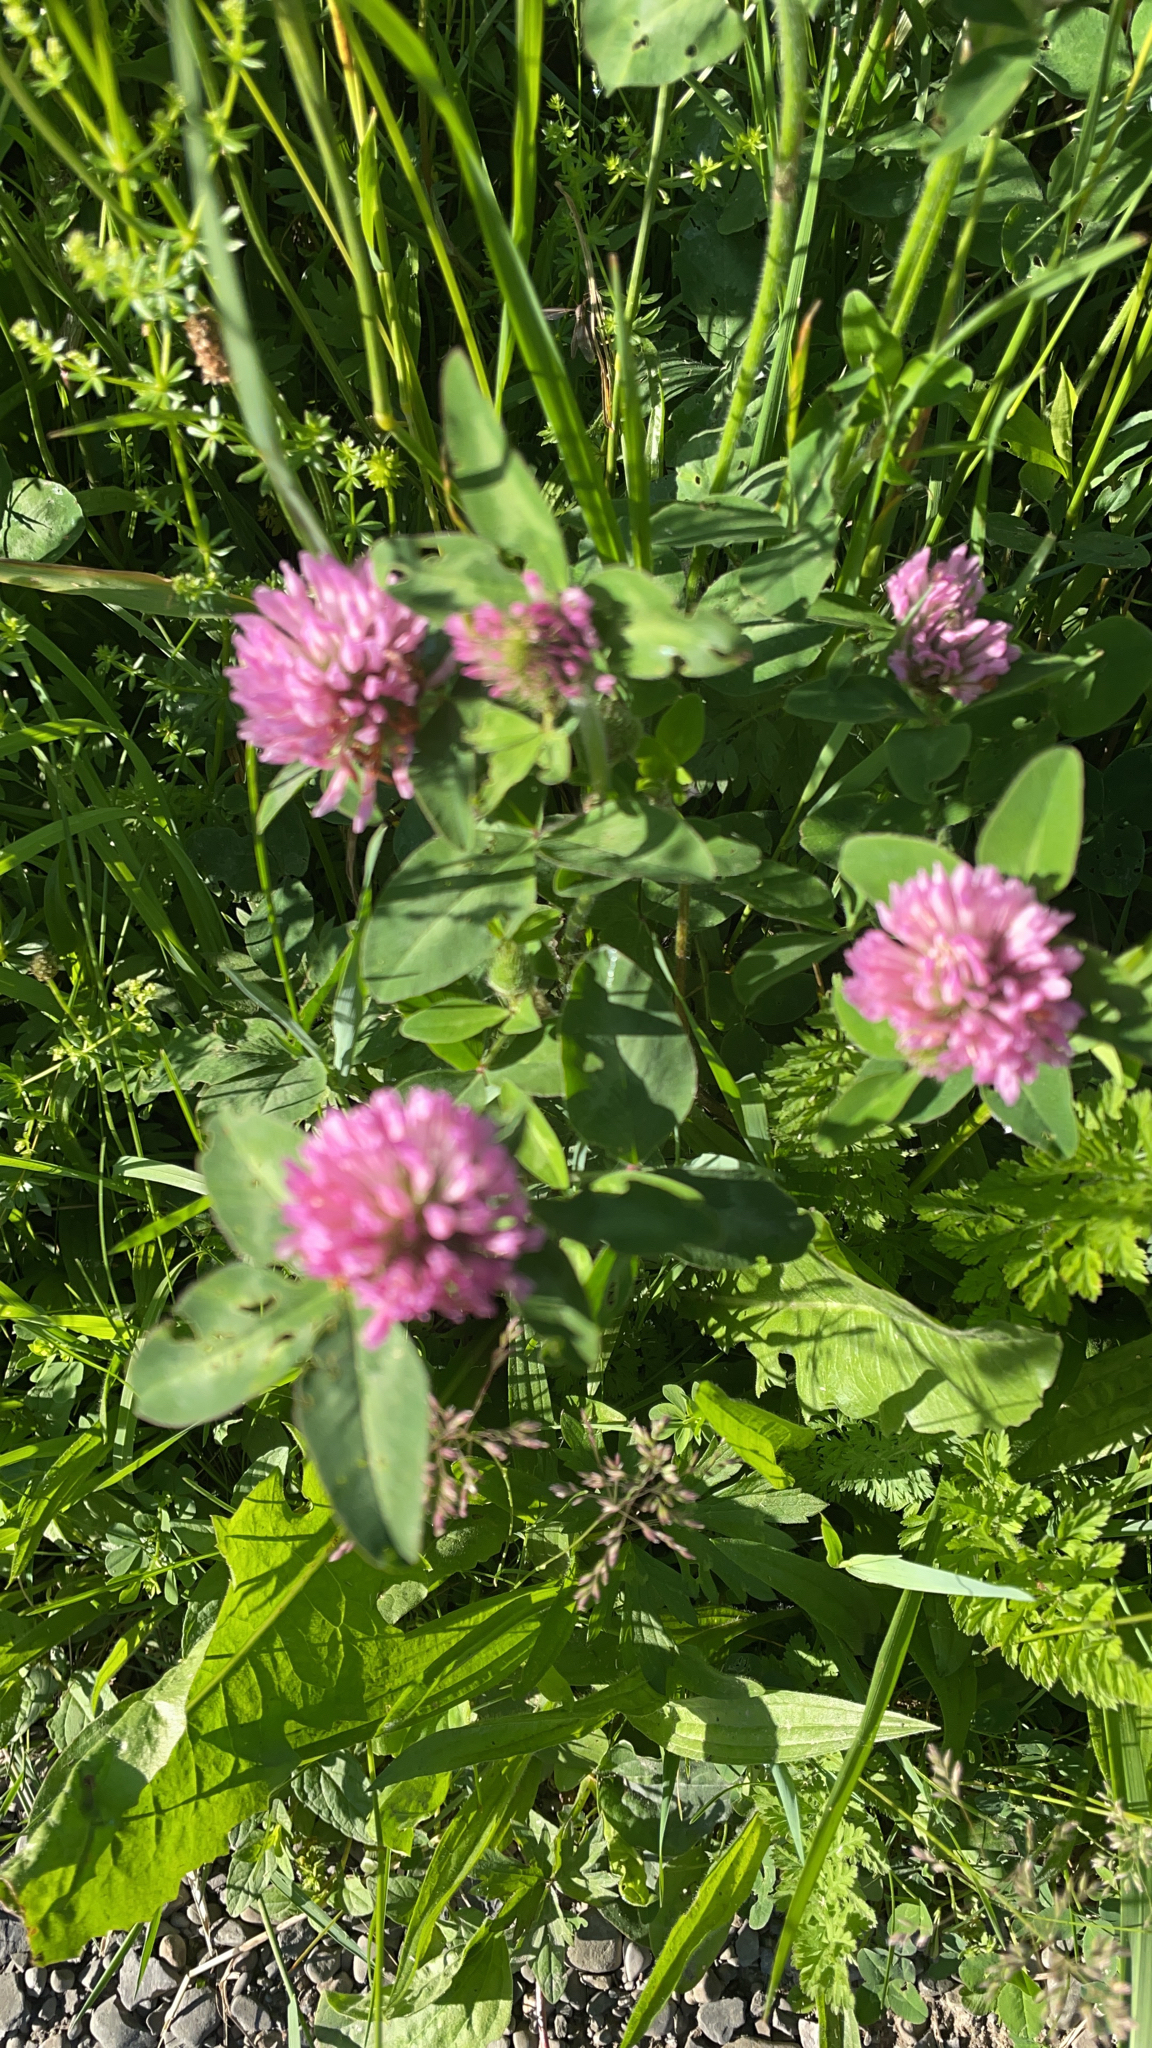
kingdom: Plantae
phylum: Tracheophyta
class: Magnoliopsida
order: Fabales
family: Fabaceae
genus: Trifolium
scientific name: Trifolium pratense
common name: Red clover
